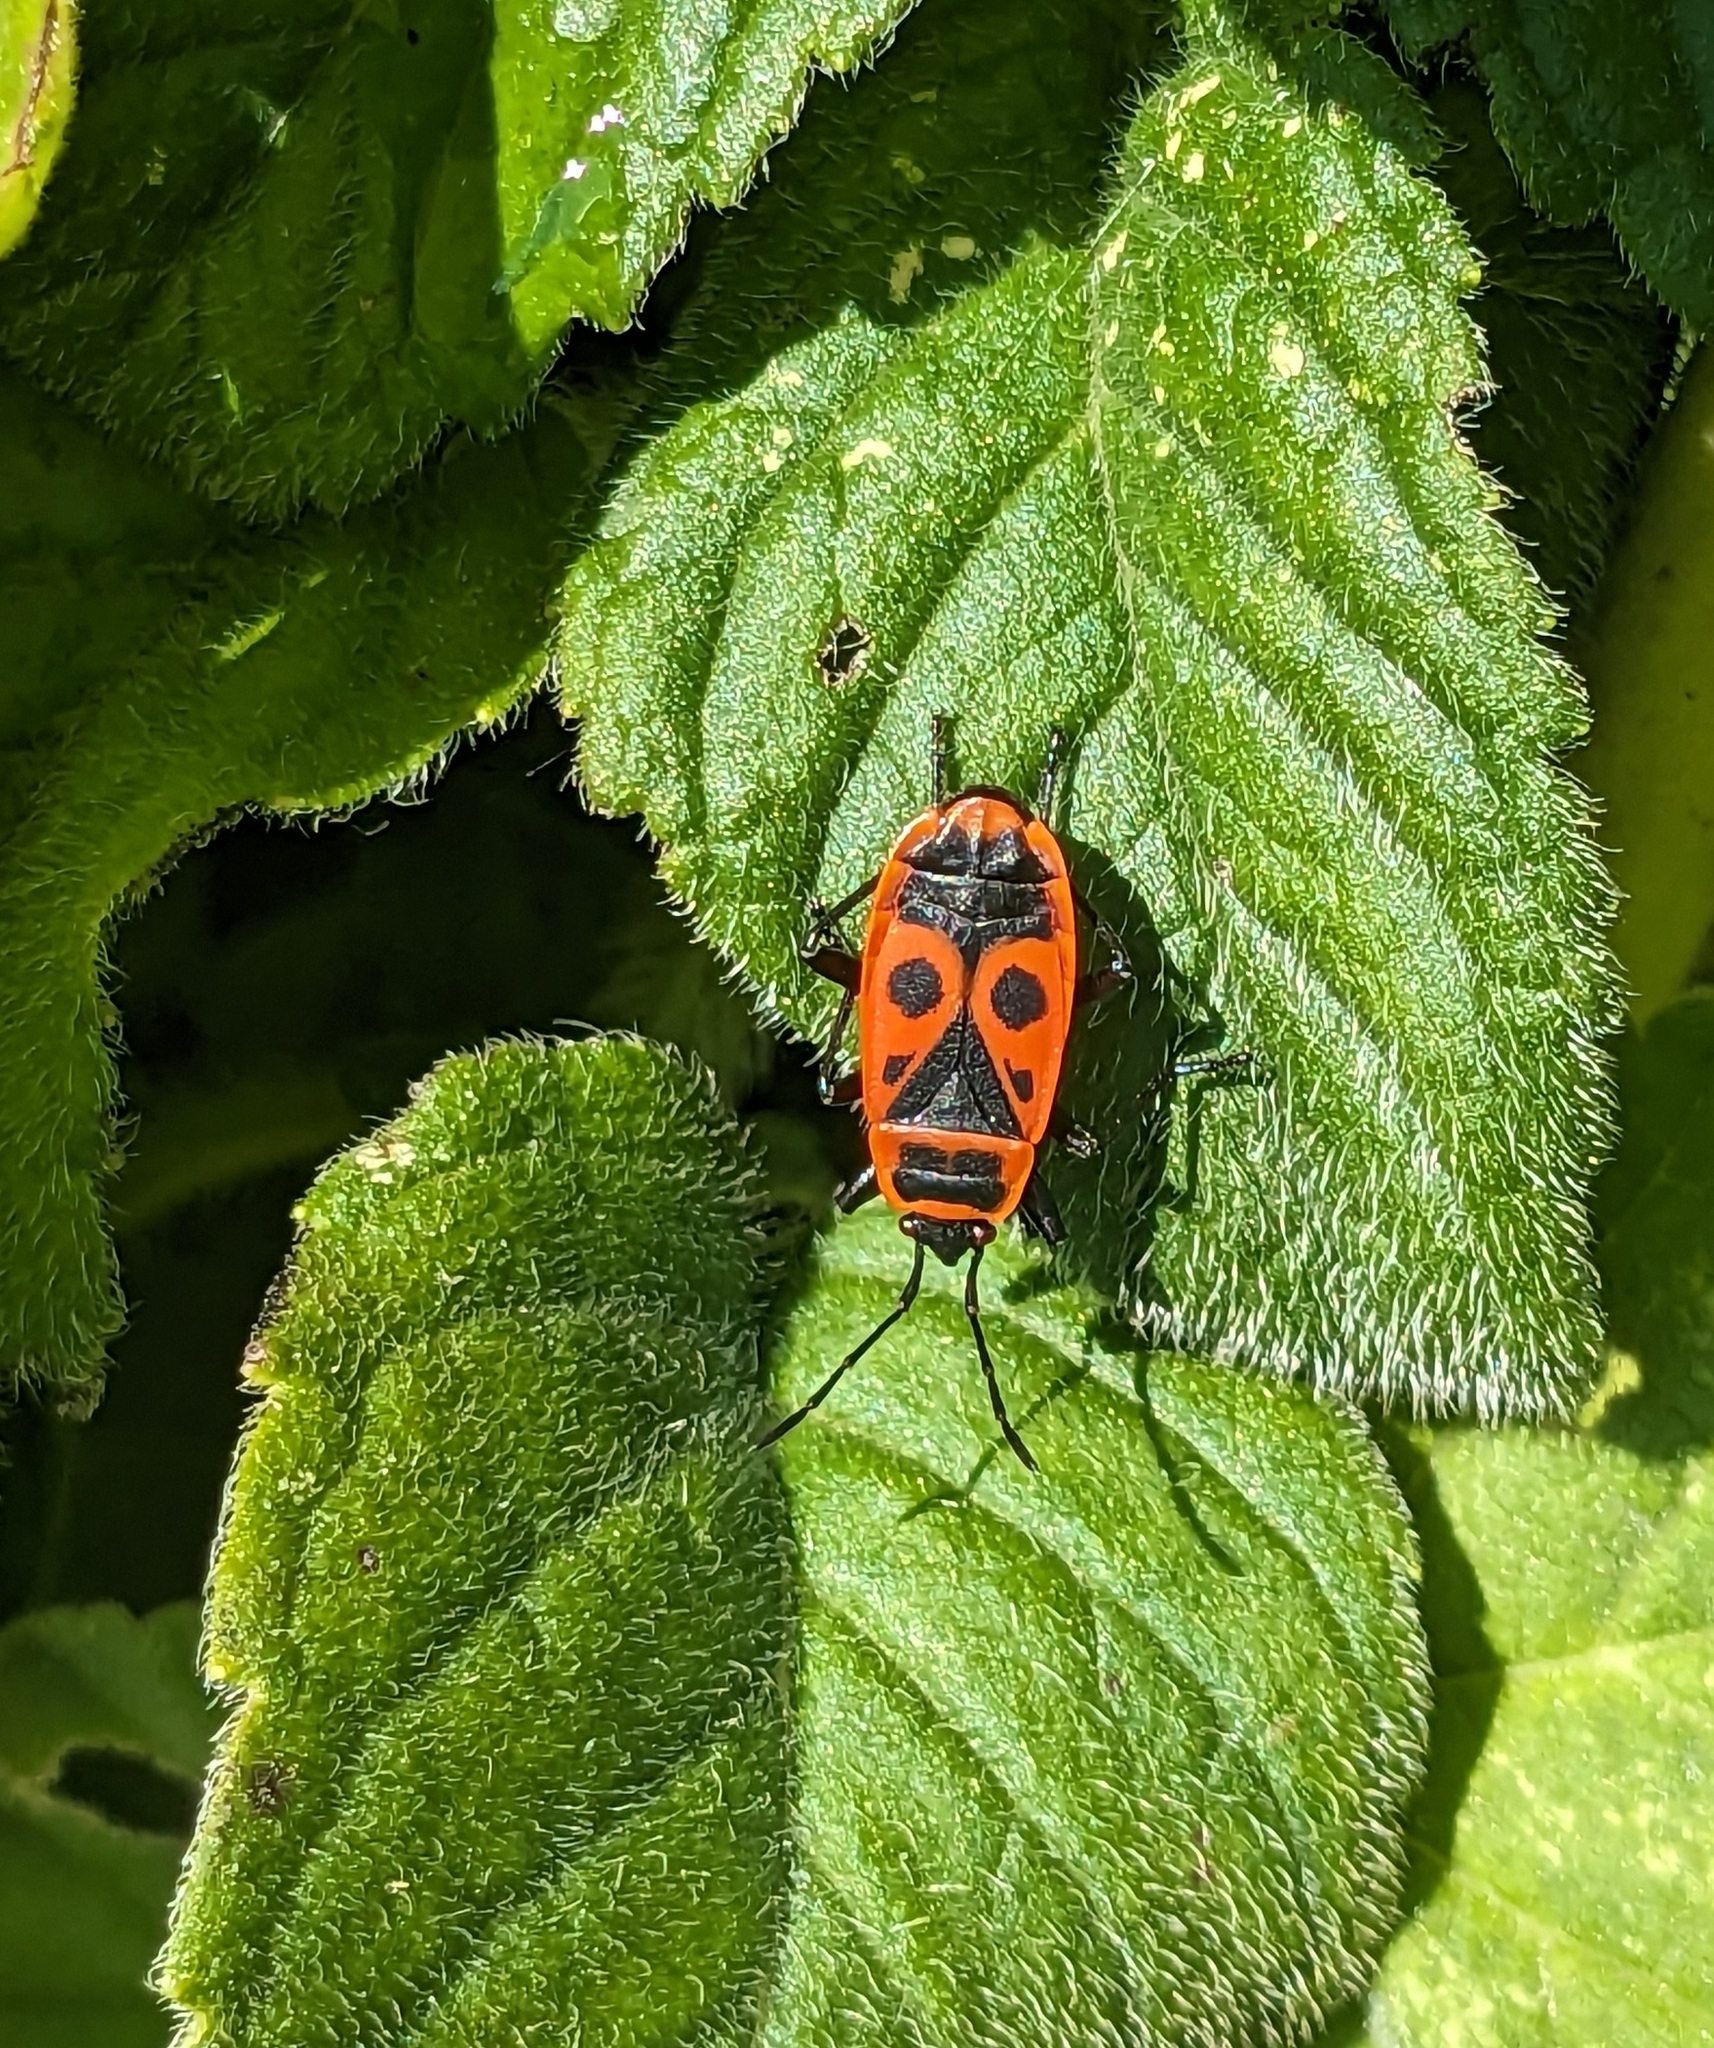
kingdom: Animalia
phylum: Arthropoda
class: Insecta
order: Hemiptera
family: Pyrrhocoridae
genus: Pyrrhocoris
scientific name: Pyrrhocoris apterus
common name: Firebug
